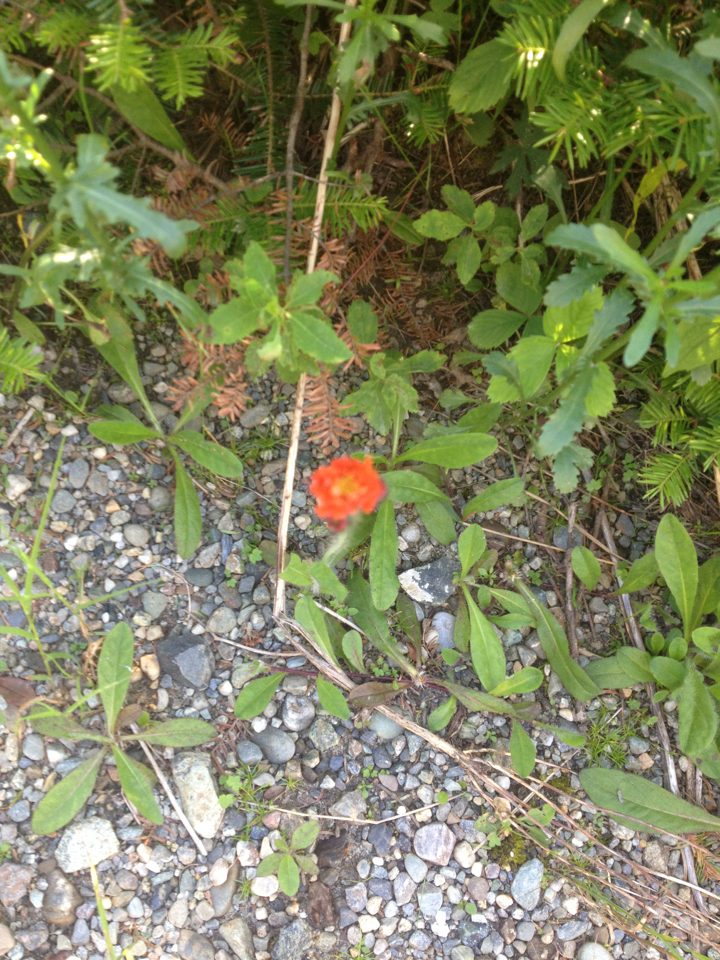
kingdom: Plantae
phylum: Tracheophyta
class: Magnoliopsida
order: Asterales
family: Asteraceae
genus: Pilosella
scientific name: Pilosella aurantiaca
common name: Fox-and-cubs
